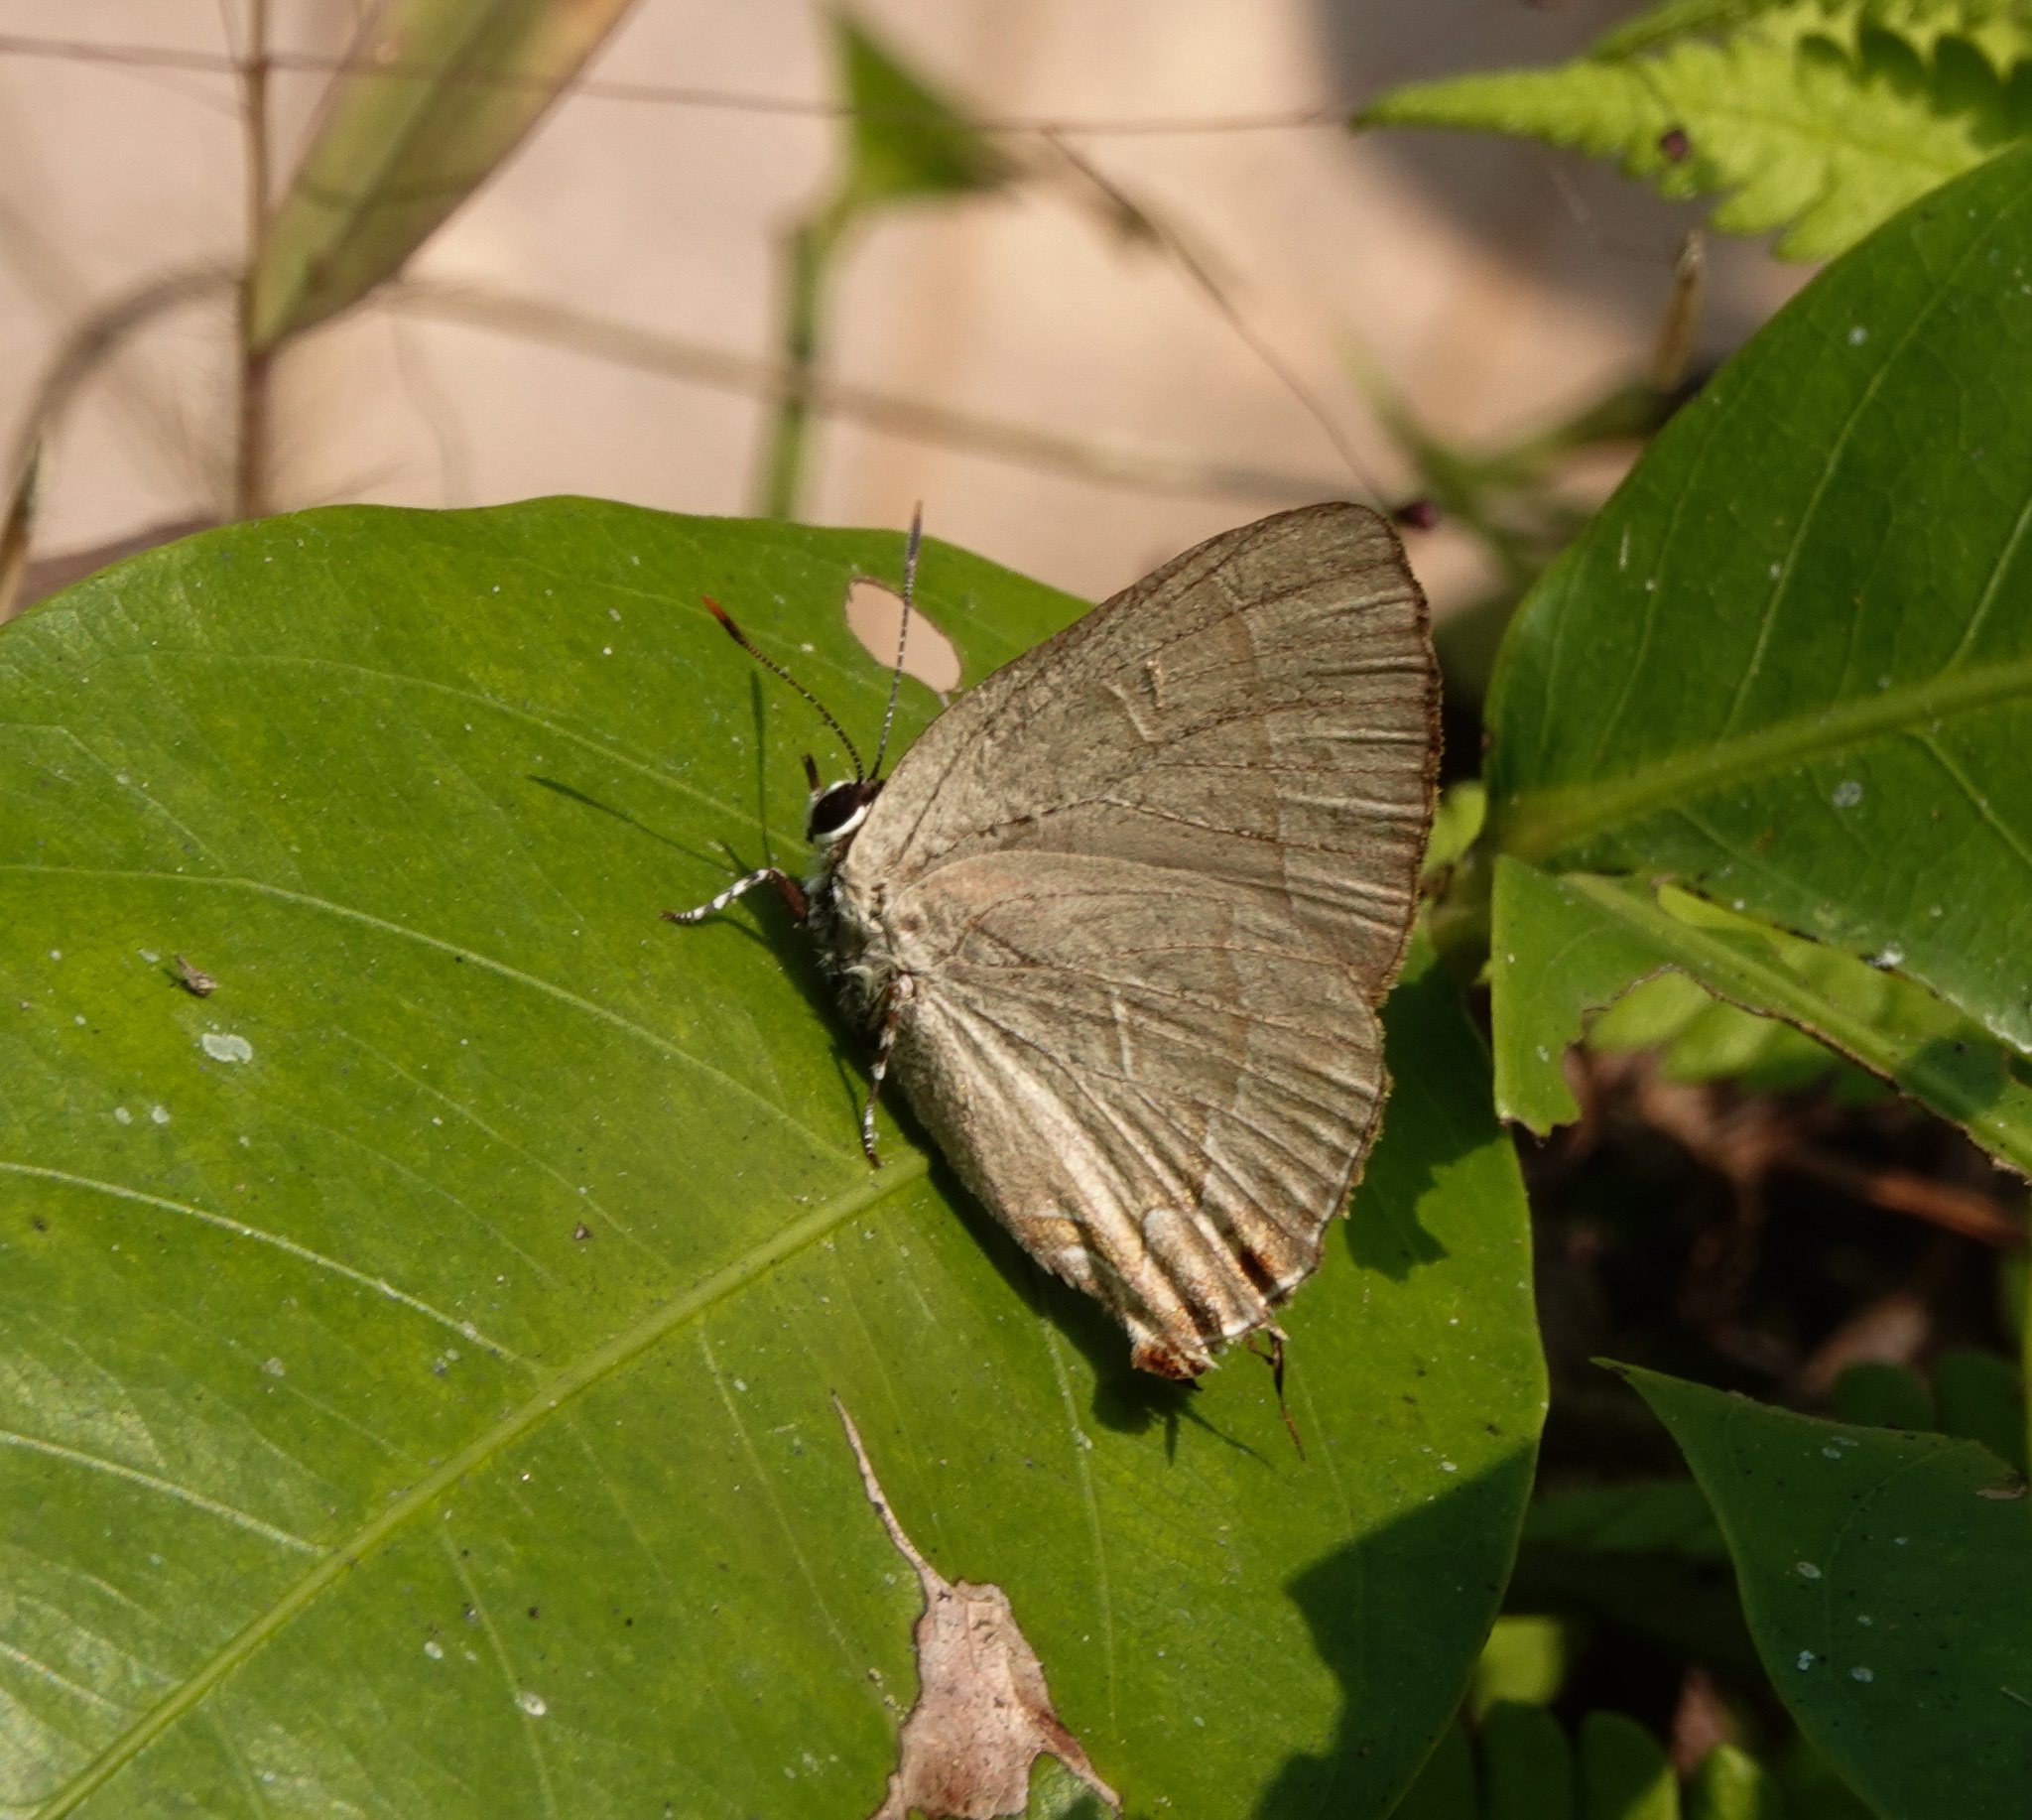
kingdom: Animalia
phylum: Arthropoda
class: Insecta
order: Lepidoptera
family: Lycaenidae
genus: Rapala
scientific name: Rapala manea
